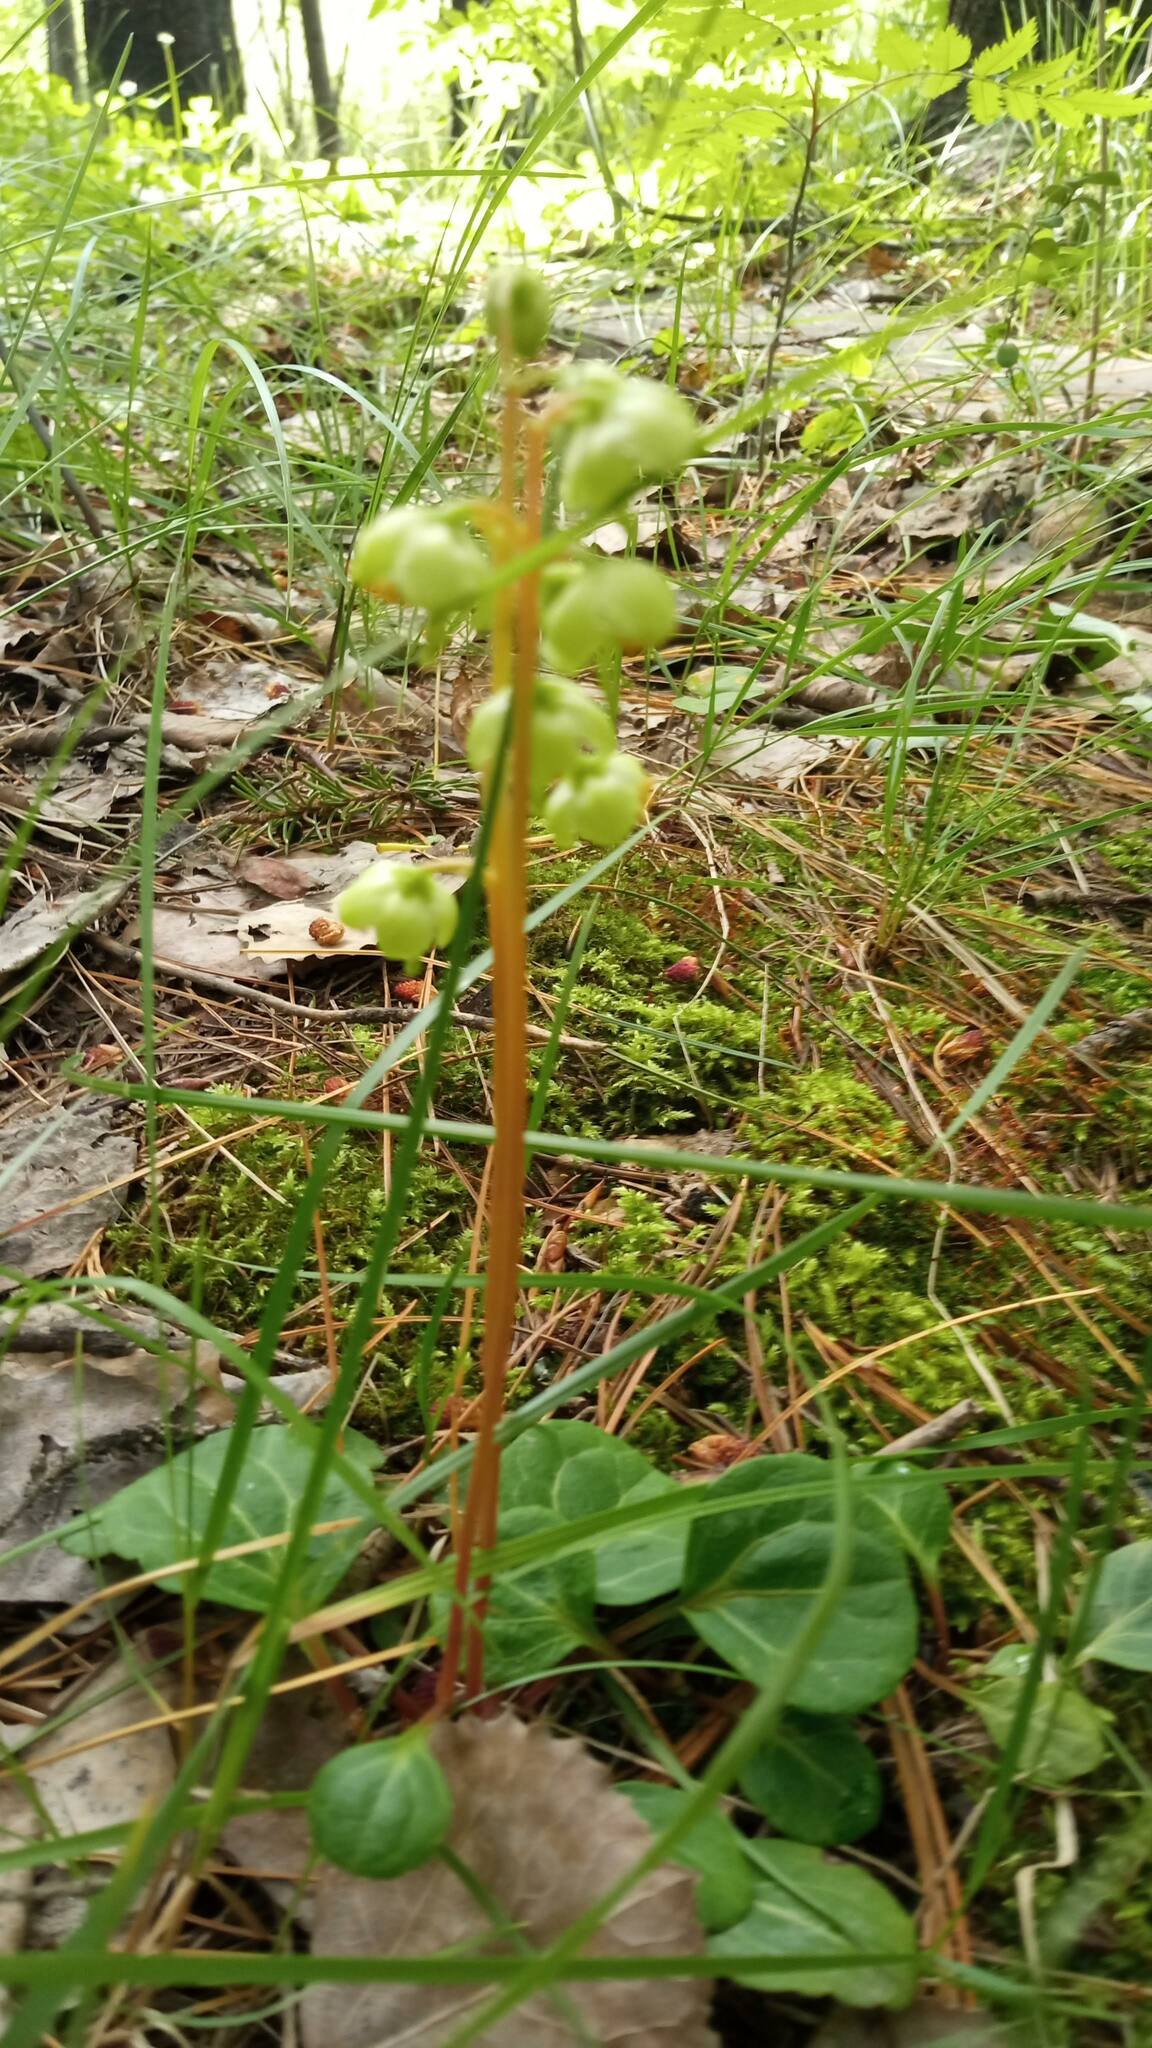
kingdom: Plantae
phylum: Tracheophyta
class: Magnoliopsida
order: Ericales
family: Ericaceae
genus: Pyrola
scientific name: Pyrola chlorantha
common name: Green wintergreen
